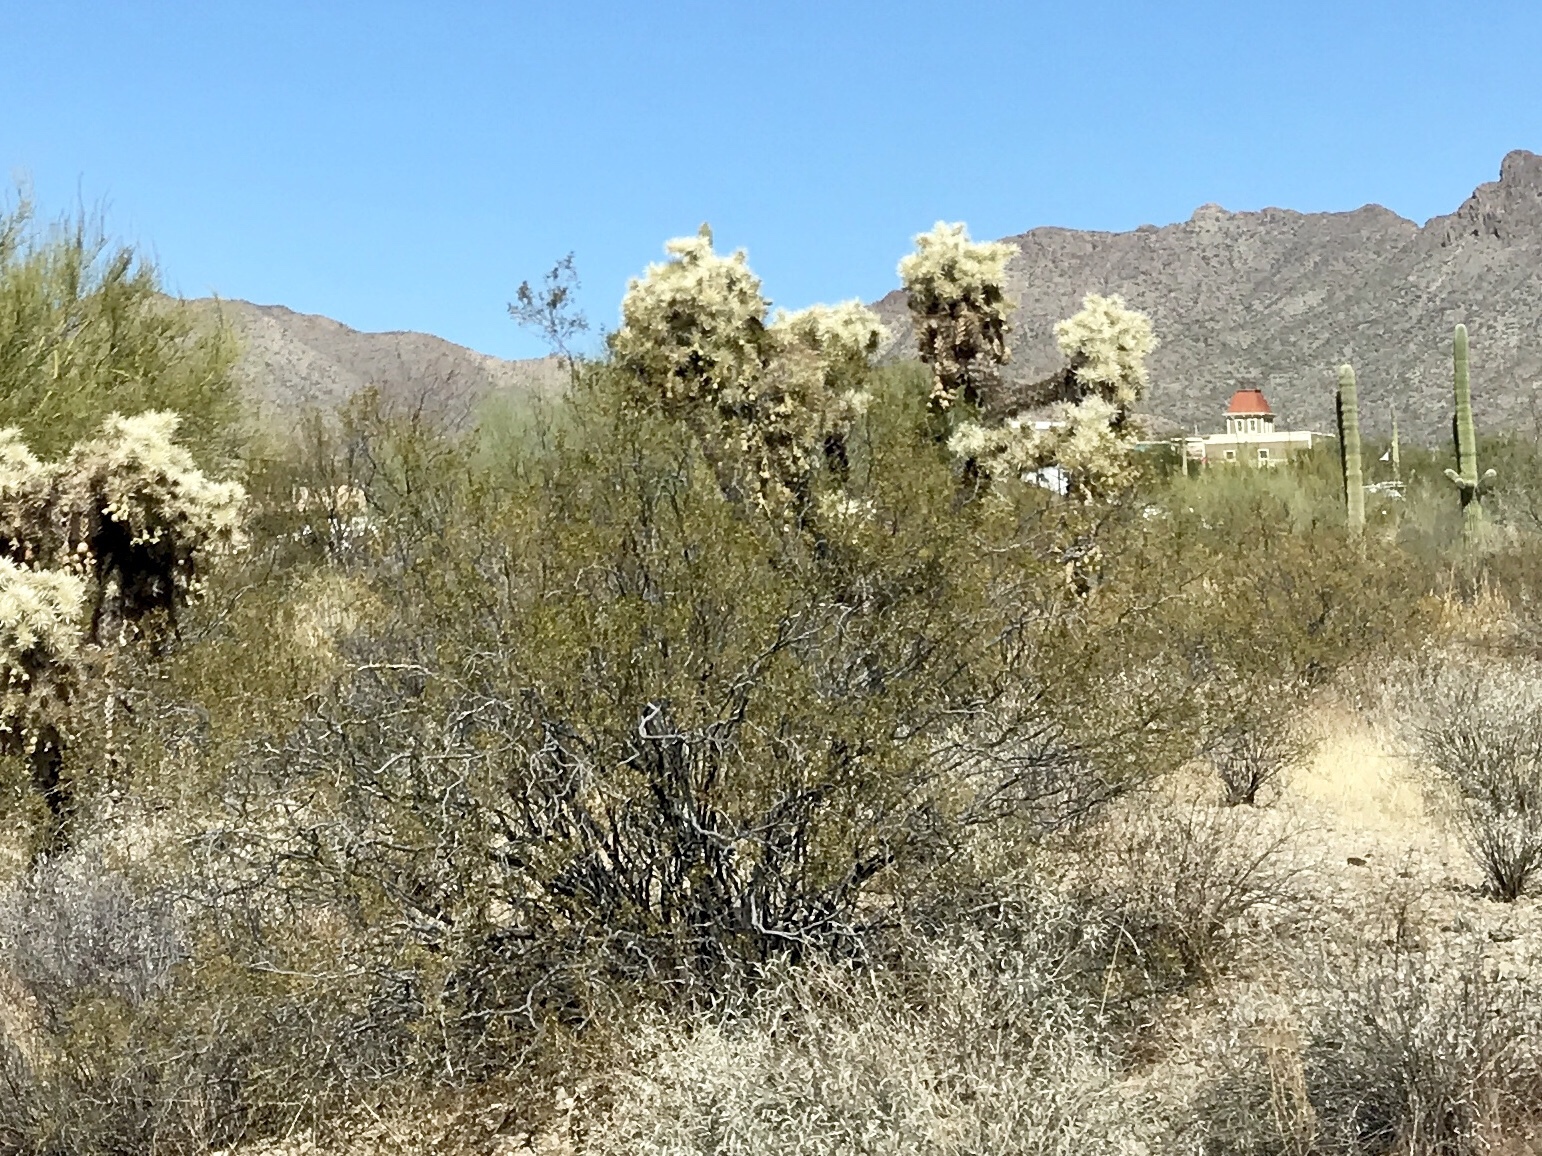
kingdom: Plantae
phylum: Tracheophyta
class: Magnoliopsida
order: Zygophyllales
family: Zygophyllaceae
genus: Larrea
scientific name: Larrea tridentata
